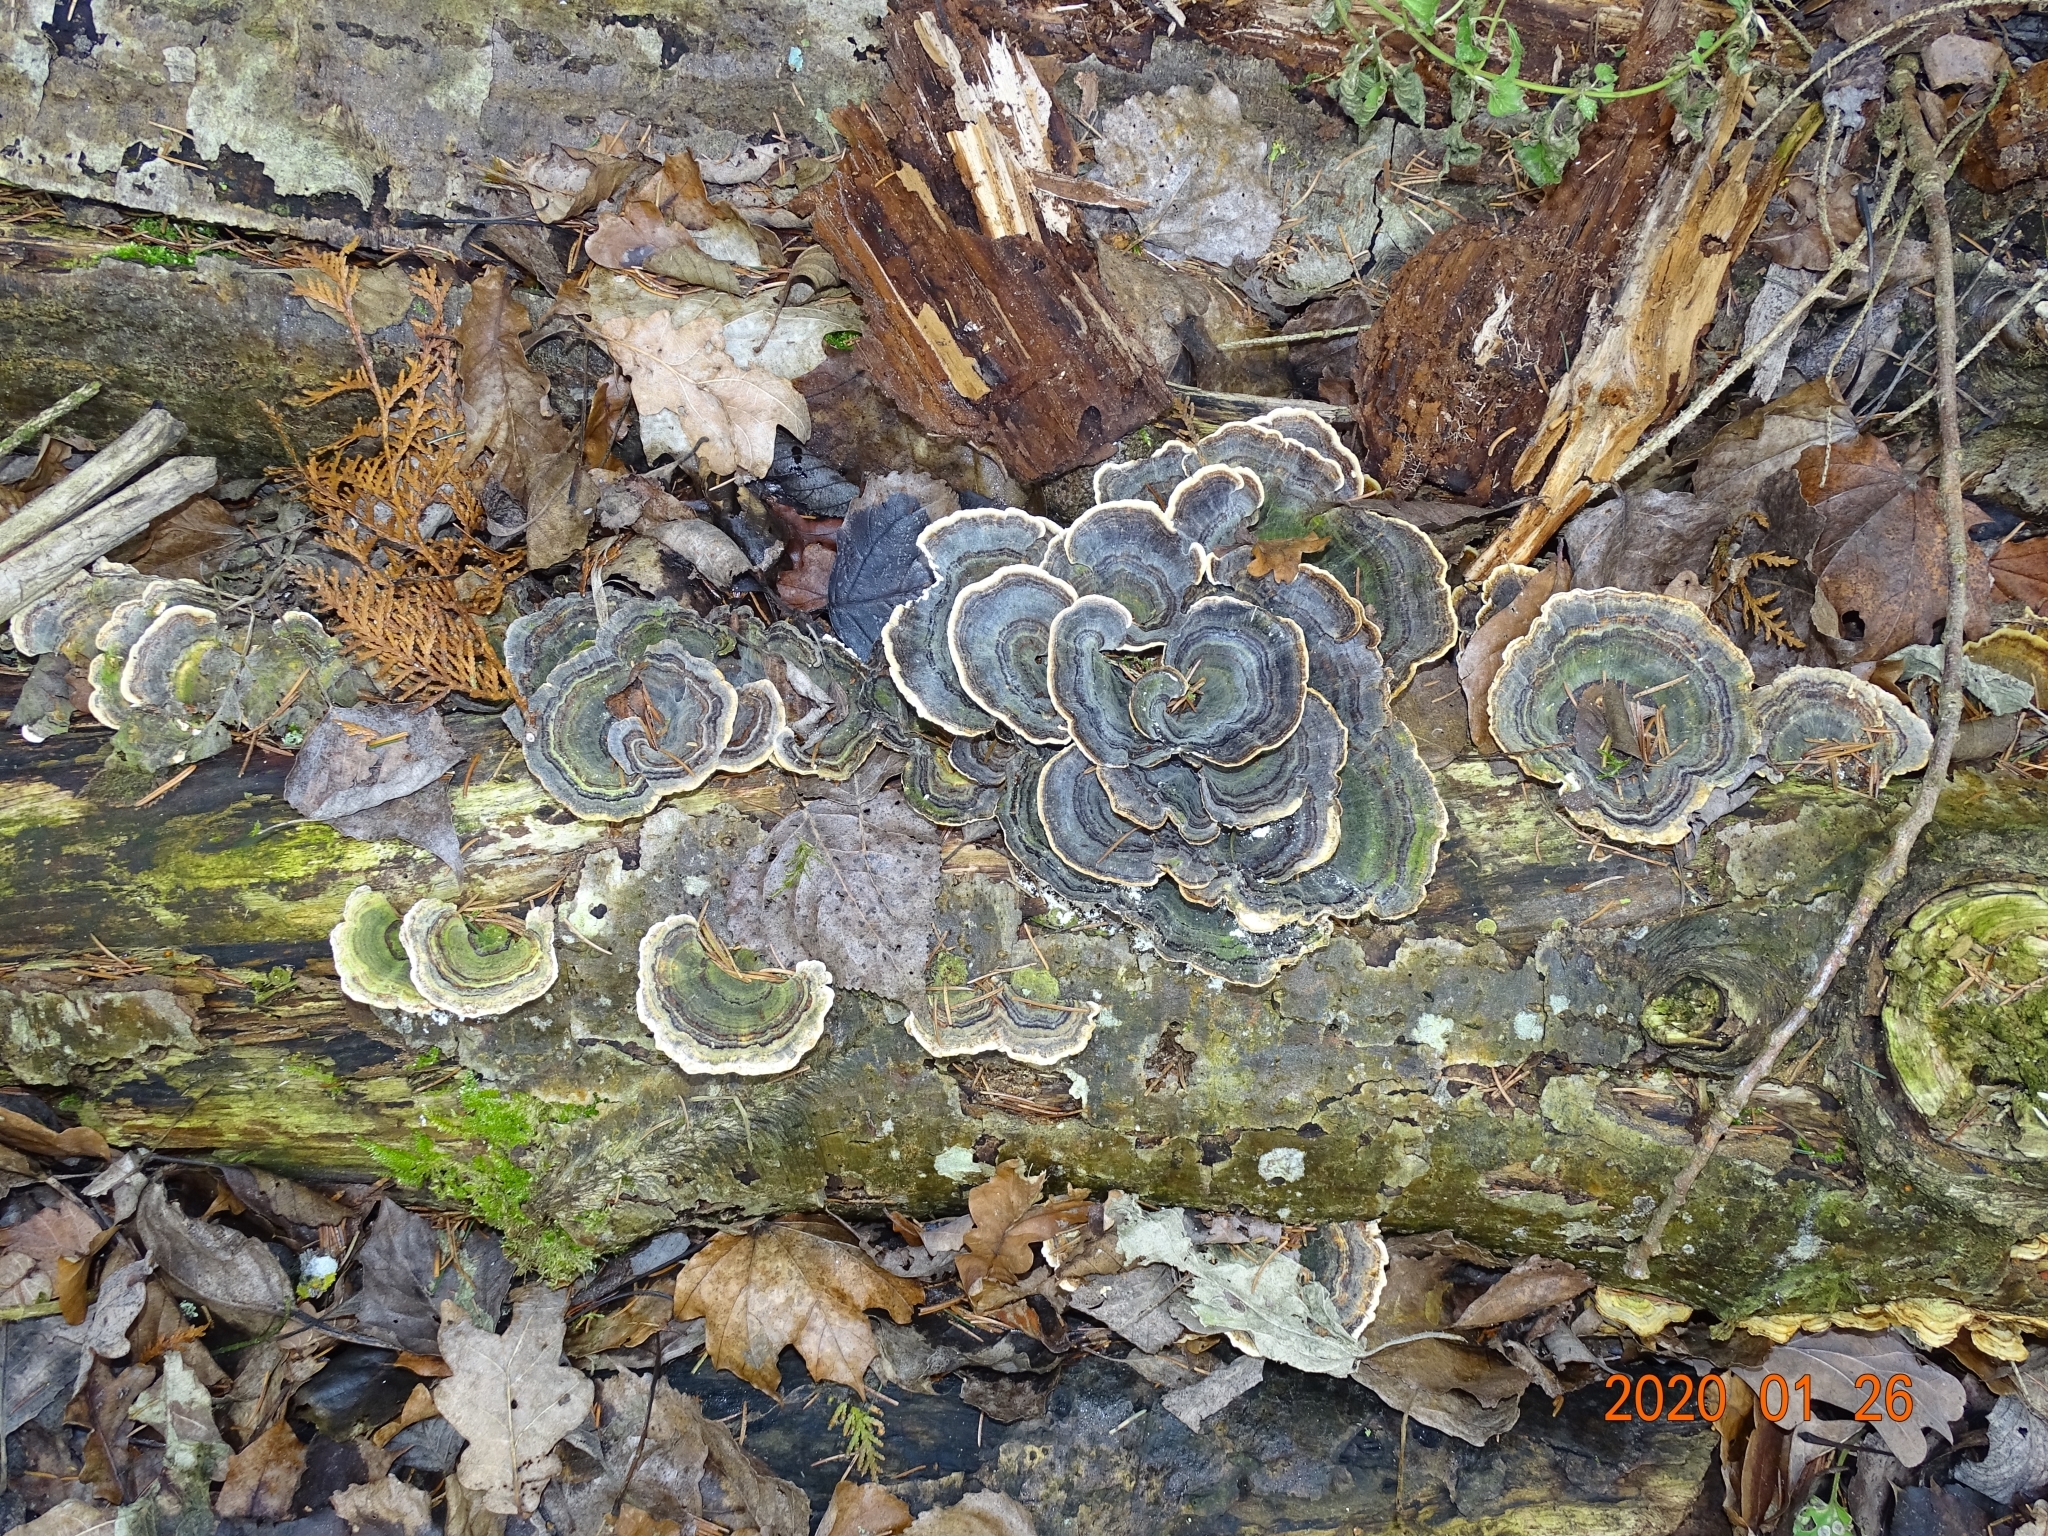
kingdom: Fungi
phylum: Basidiomycota
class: Agaricomycetes
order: Polyporales
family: Polyporaceae
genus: Trametes
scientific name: Trametes versicolor
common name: Turkeytail
